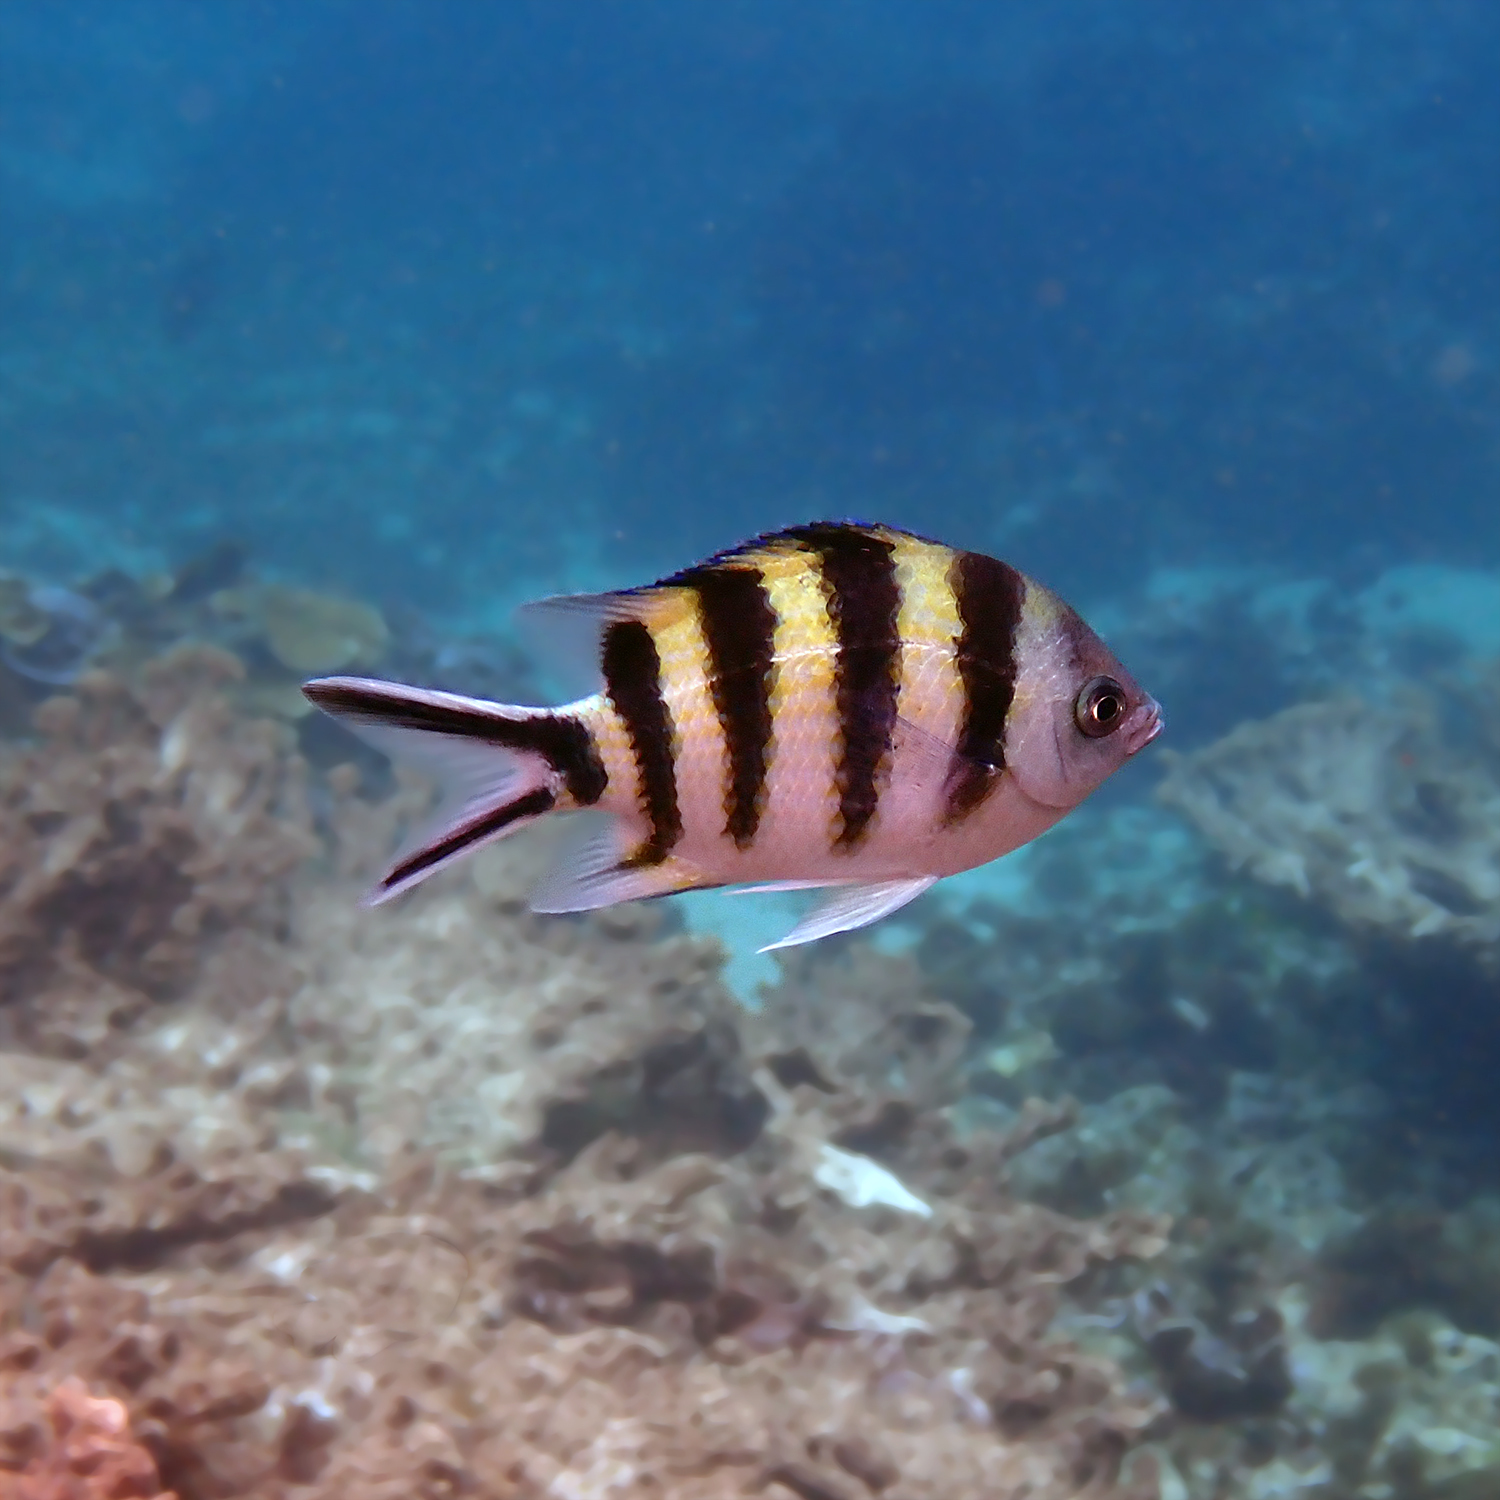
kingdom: Animalia
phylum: Chordata
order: Perciformes
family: Pomacentridae
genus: Abudefduf
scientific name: Abudefduf sexfasciatus
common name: Scissortail sergeant
